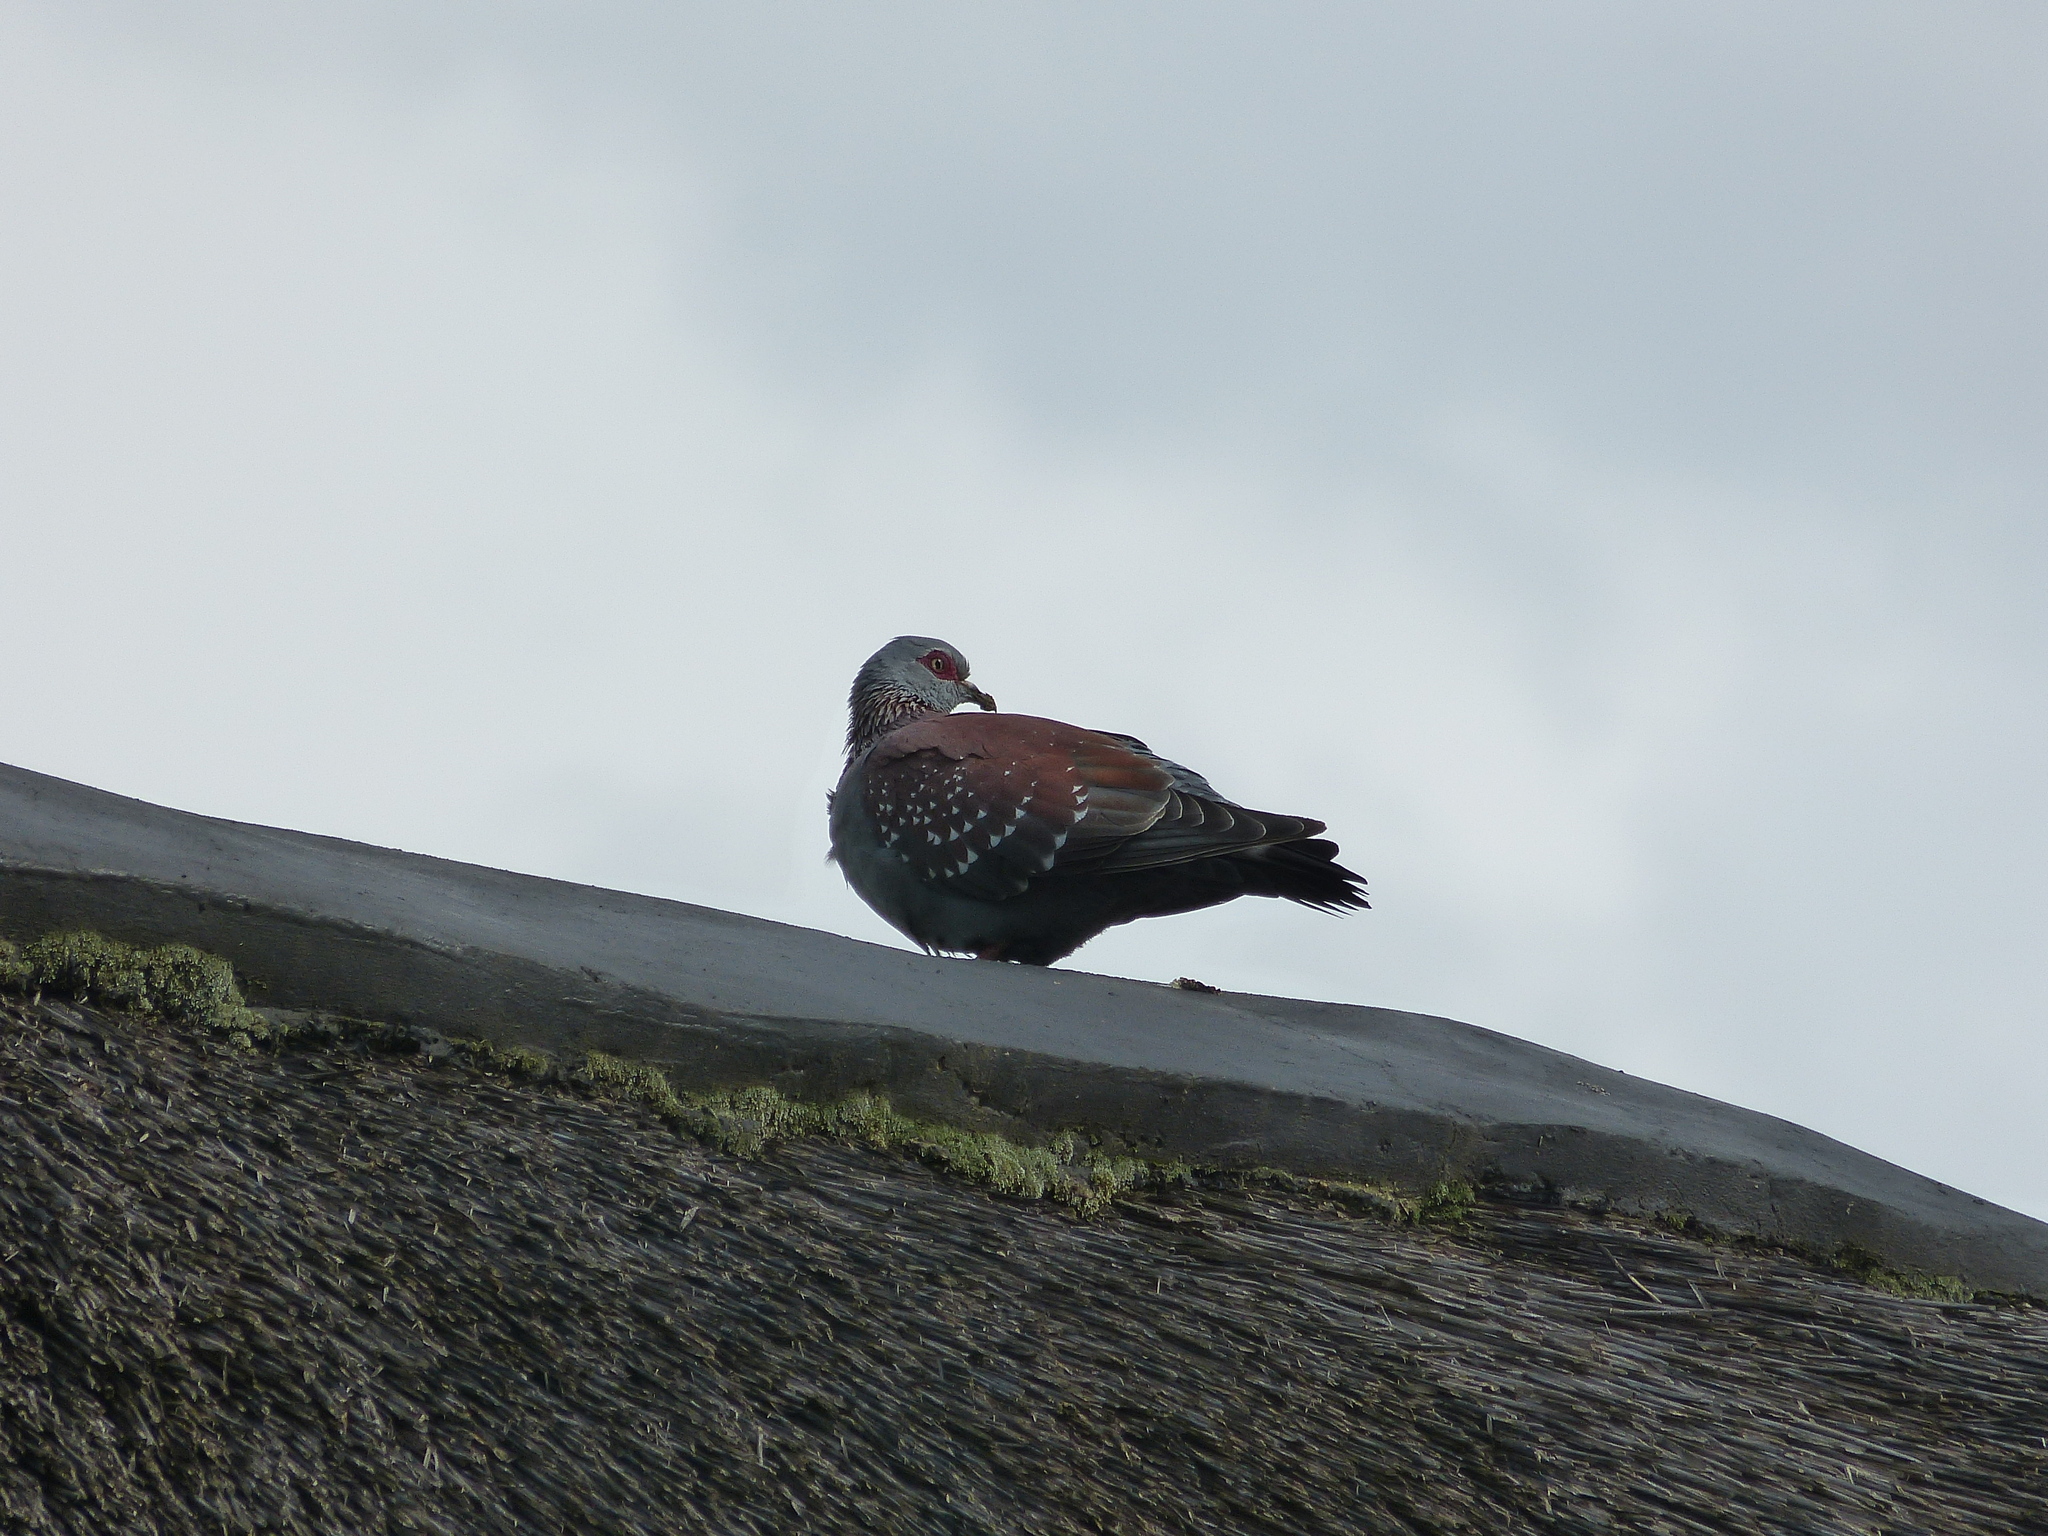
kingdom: Animalia
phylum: Chordata
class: Aves
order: Columbiformes
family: Columbidae
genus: Columba
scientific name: Columba guinea
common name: Speckled pigeon
